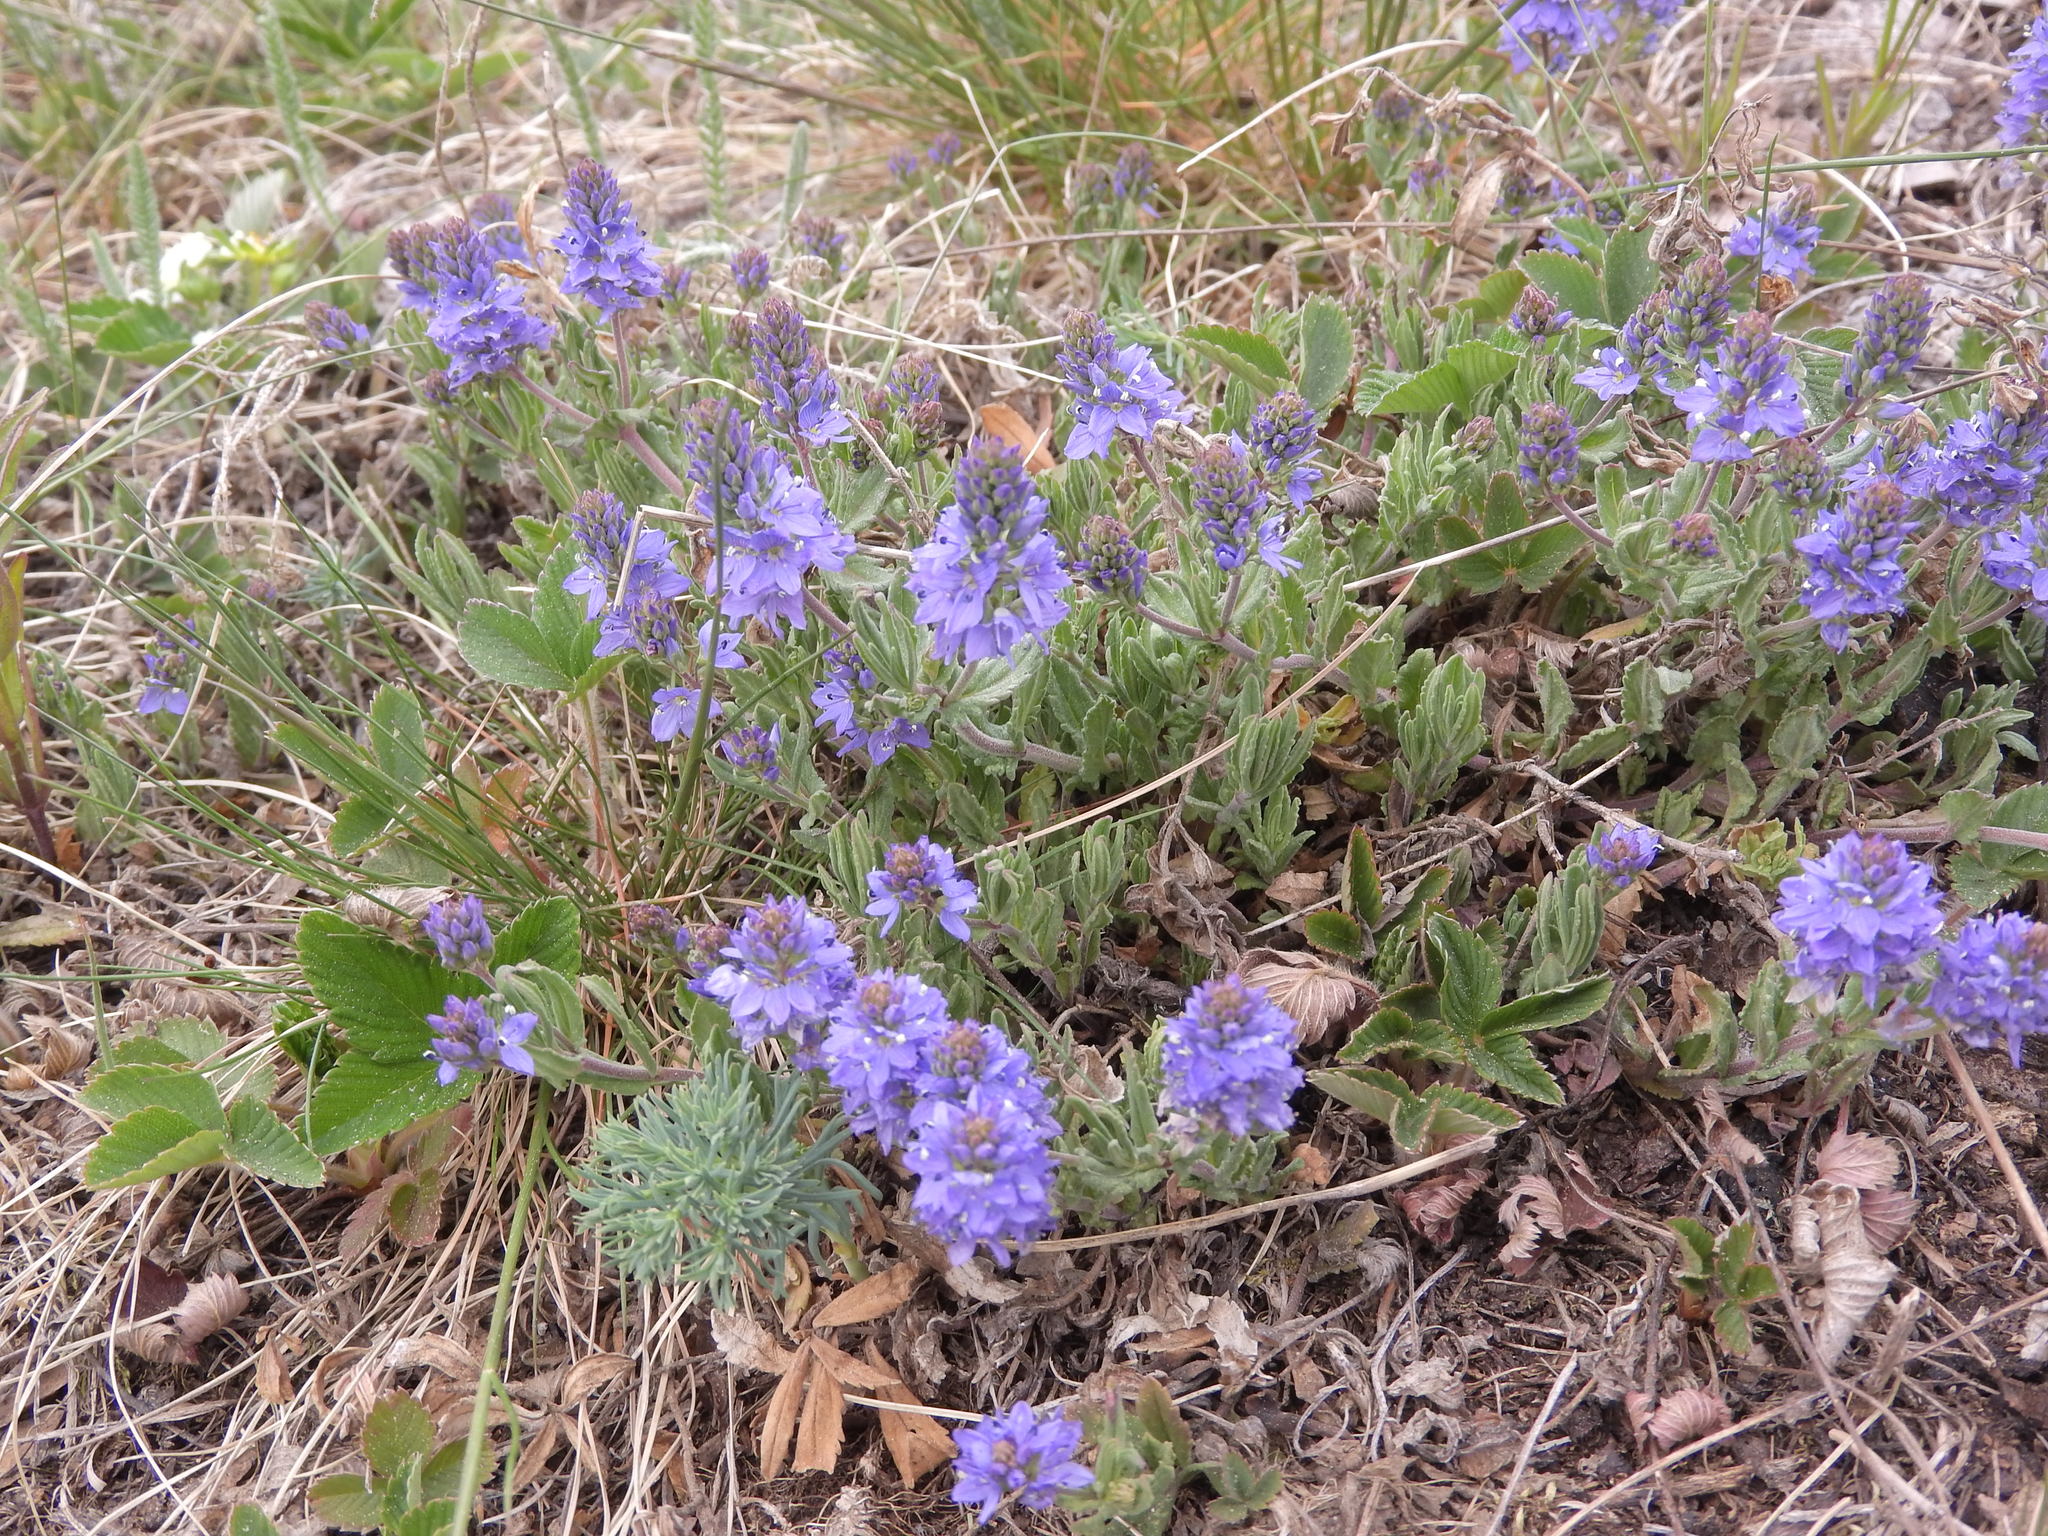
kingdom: Plantae
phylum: Tracheophyta
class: Magnoliopsida
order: Lamiales
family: Plantaginaceae
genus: Veronica
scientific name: Veronica prostrata
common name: Prostrate speedwell
